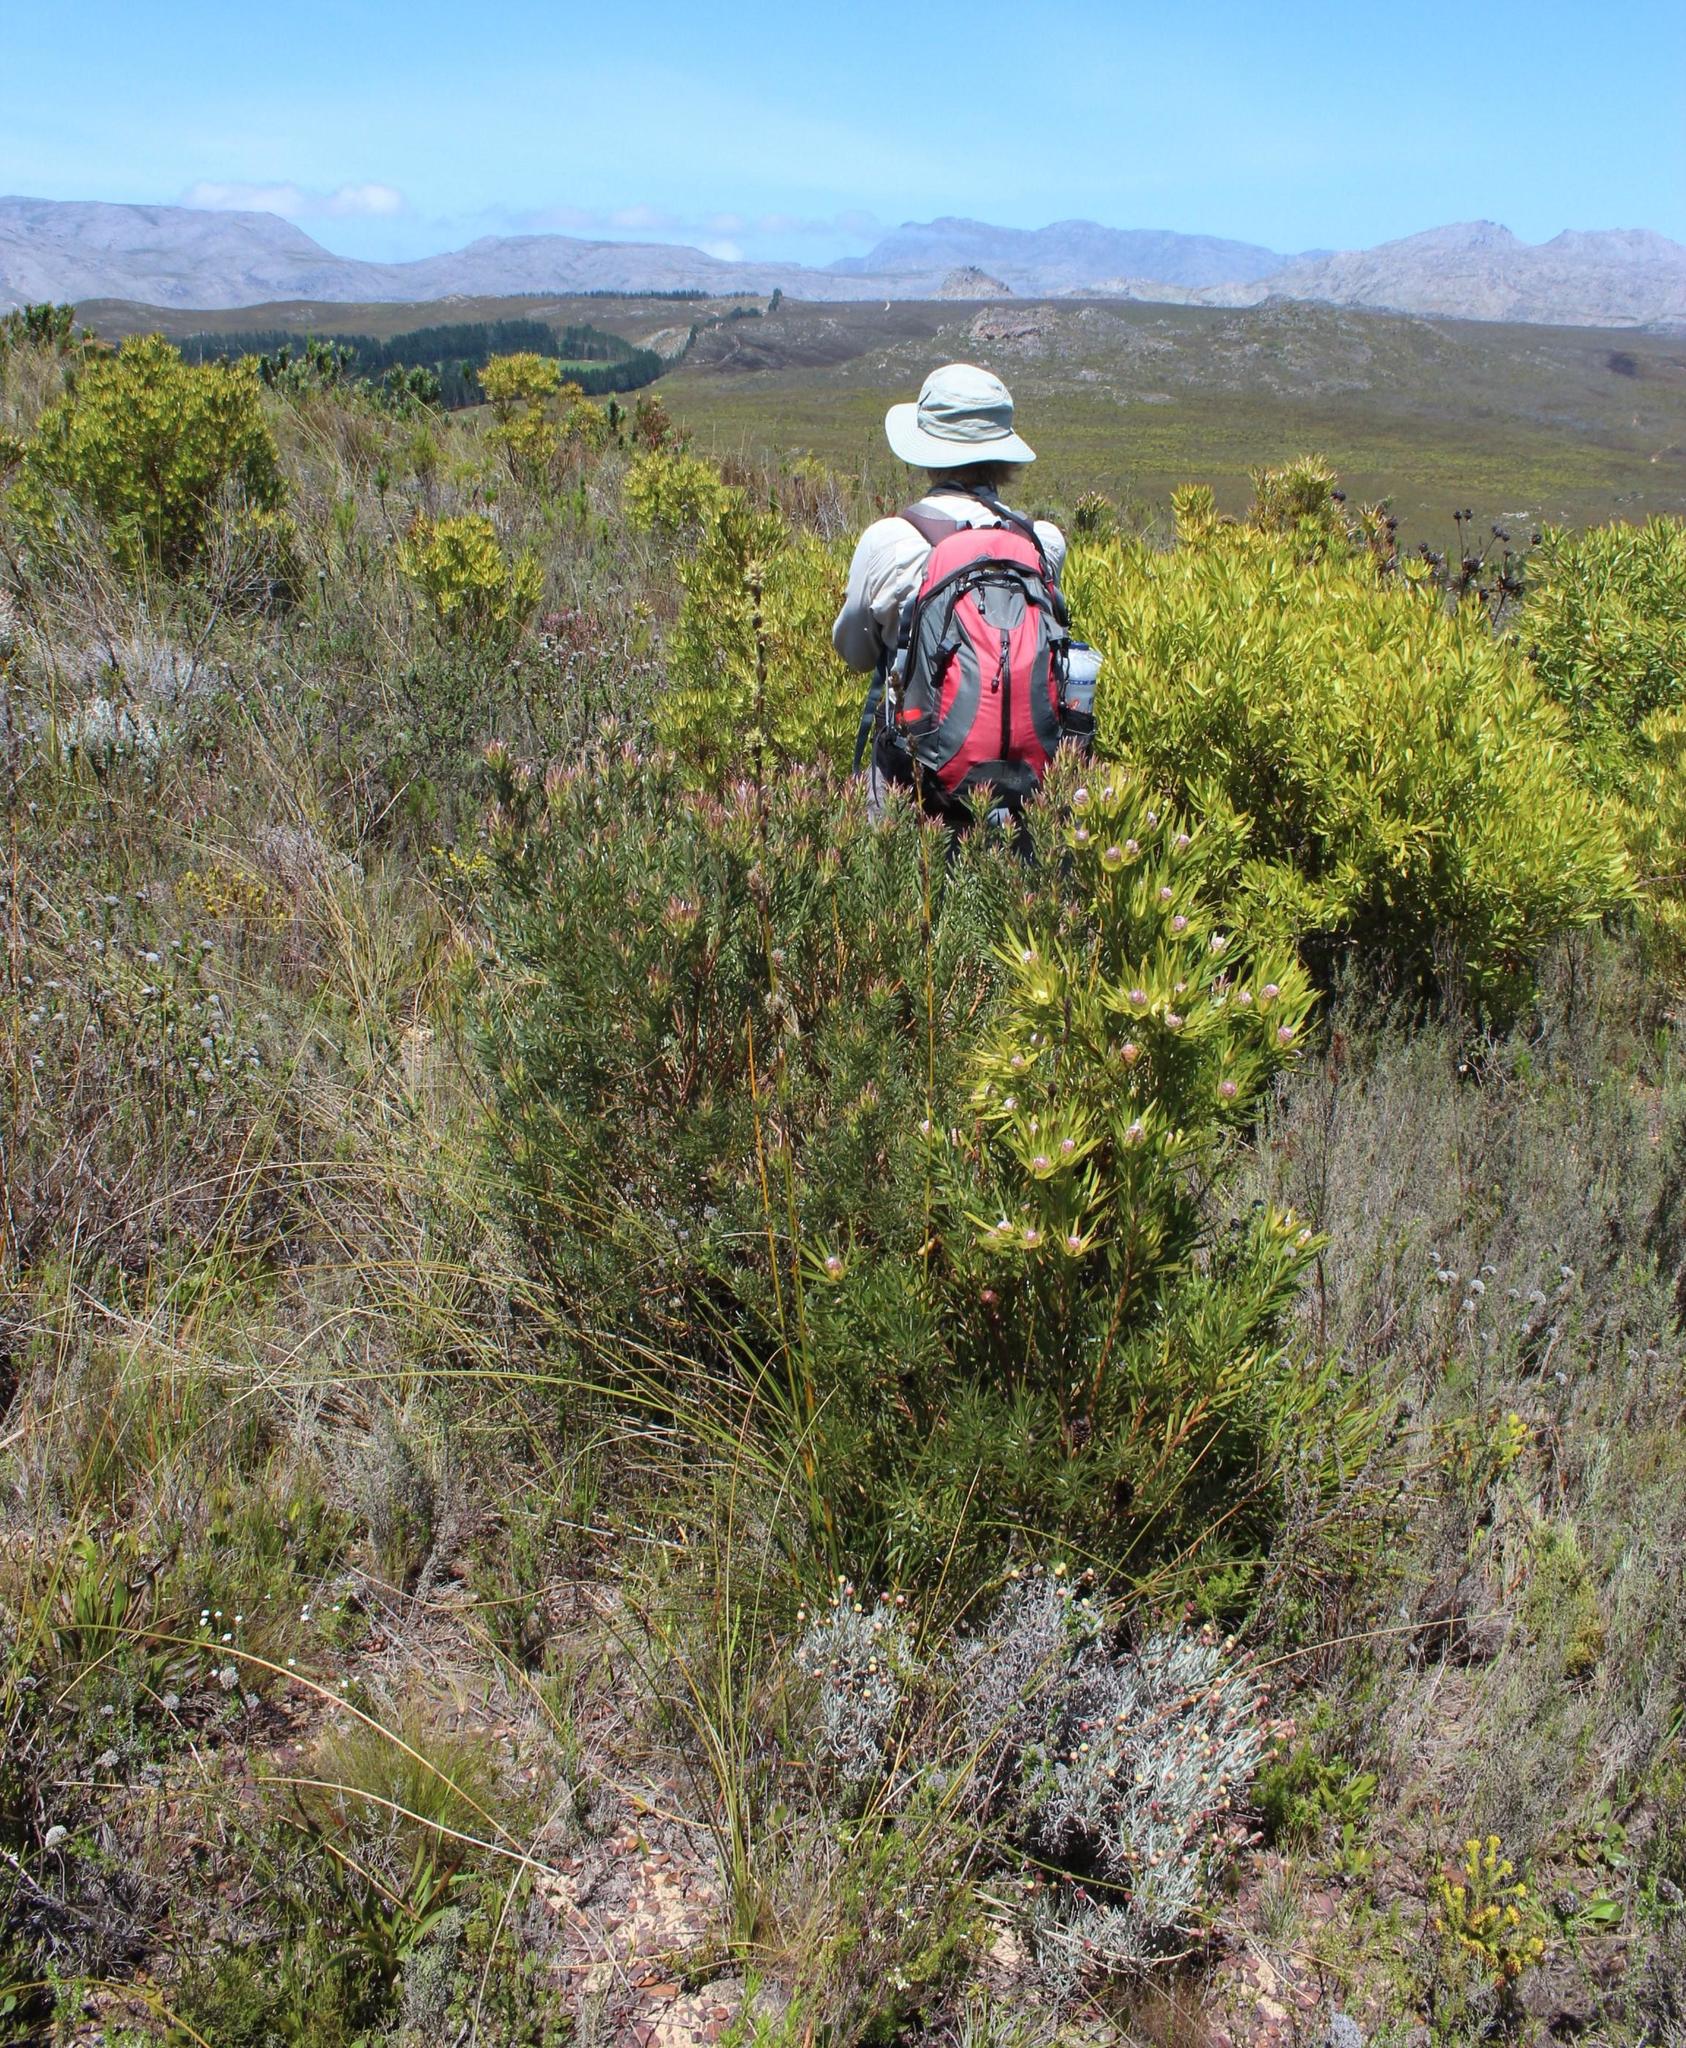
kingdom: Plantae
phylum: Tracheophyta
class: Magnoliopsida
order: Proteales
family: Proteaceae
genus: Leucadendron
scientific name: Leucadendron xanthoconus
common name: Sickle-leaf conebush
